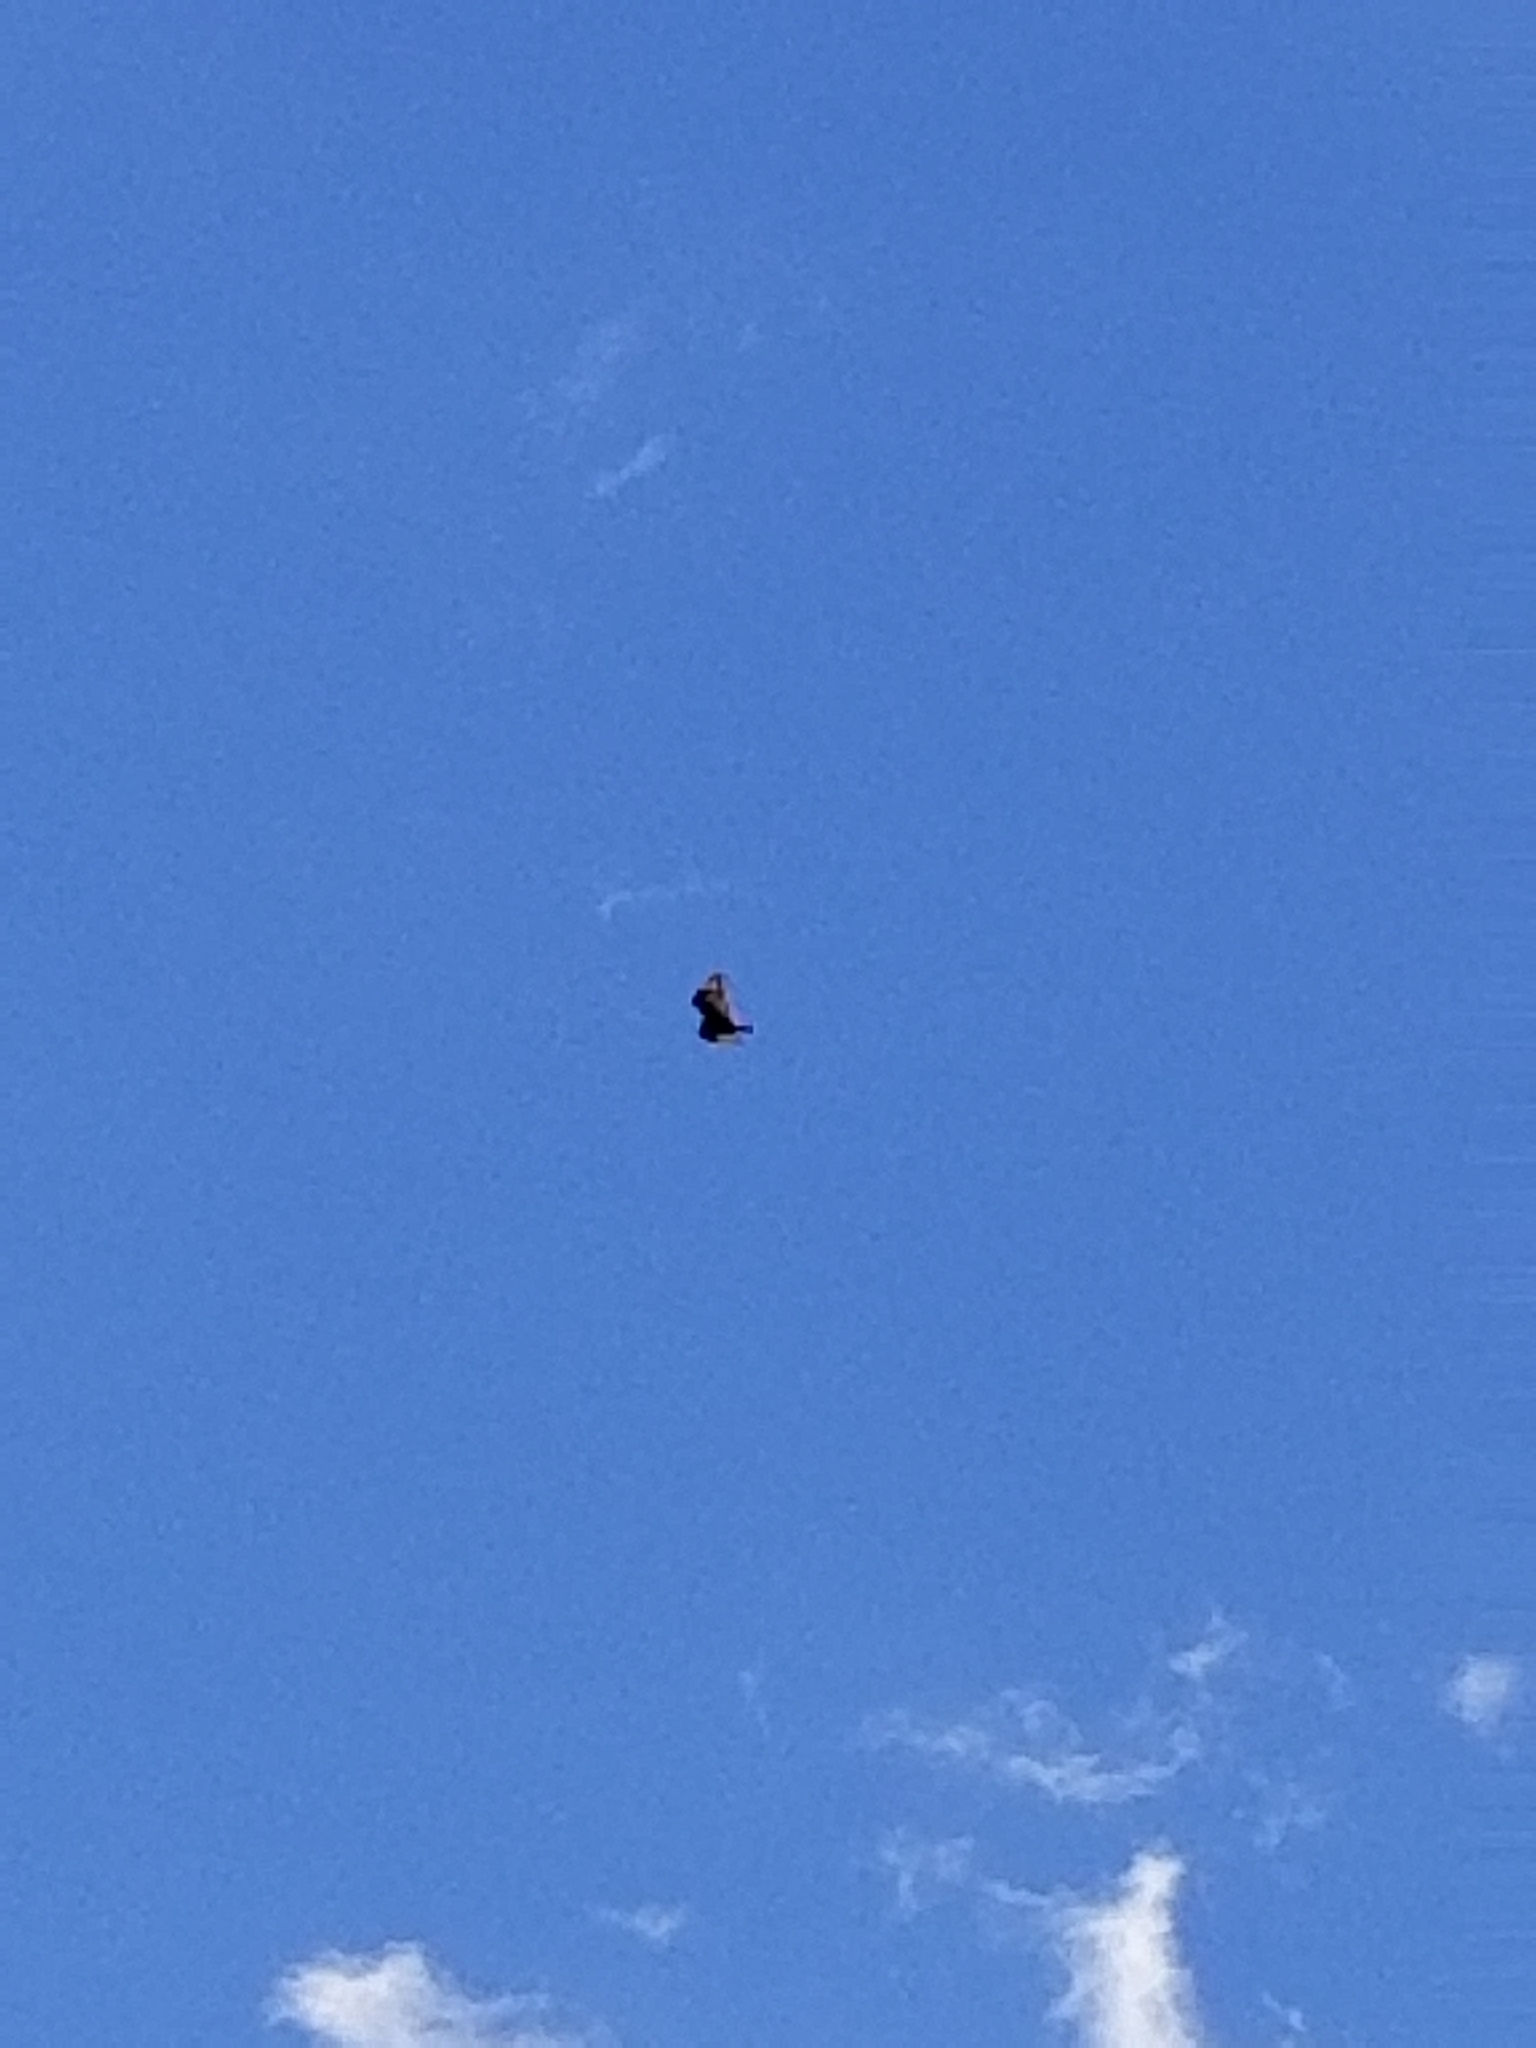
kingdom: Animalia
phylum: Chordata
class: Aves
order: Accipitriformes
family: Cathartidae
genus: Cathartes
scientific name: Cathartes aura
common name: Turkey vulture
